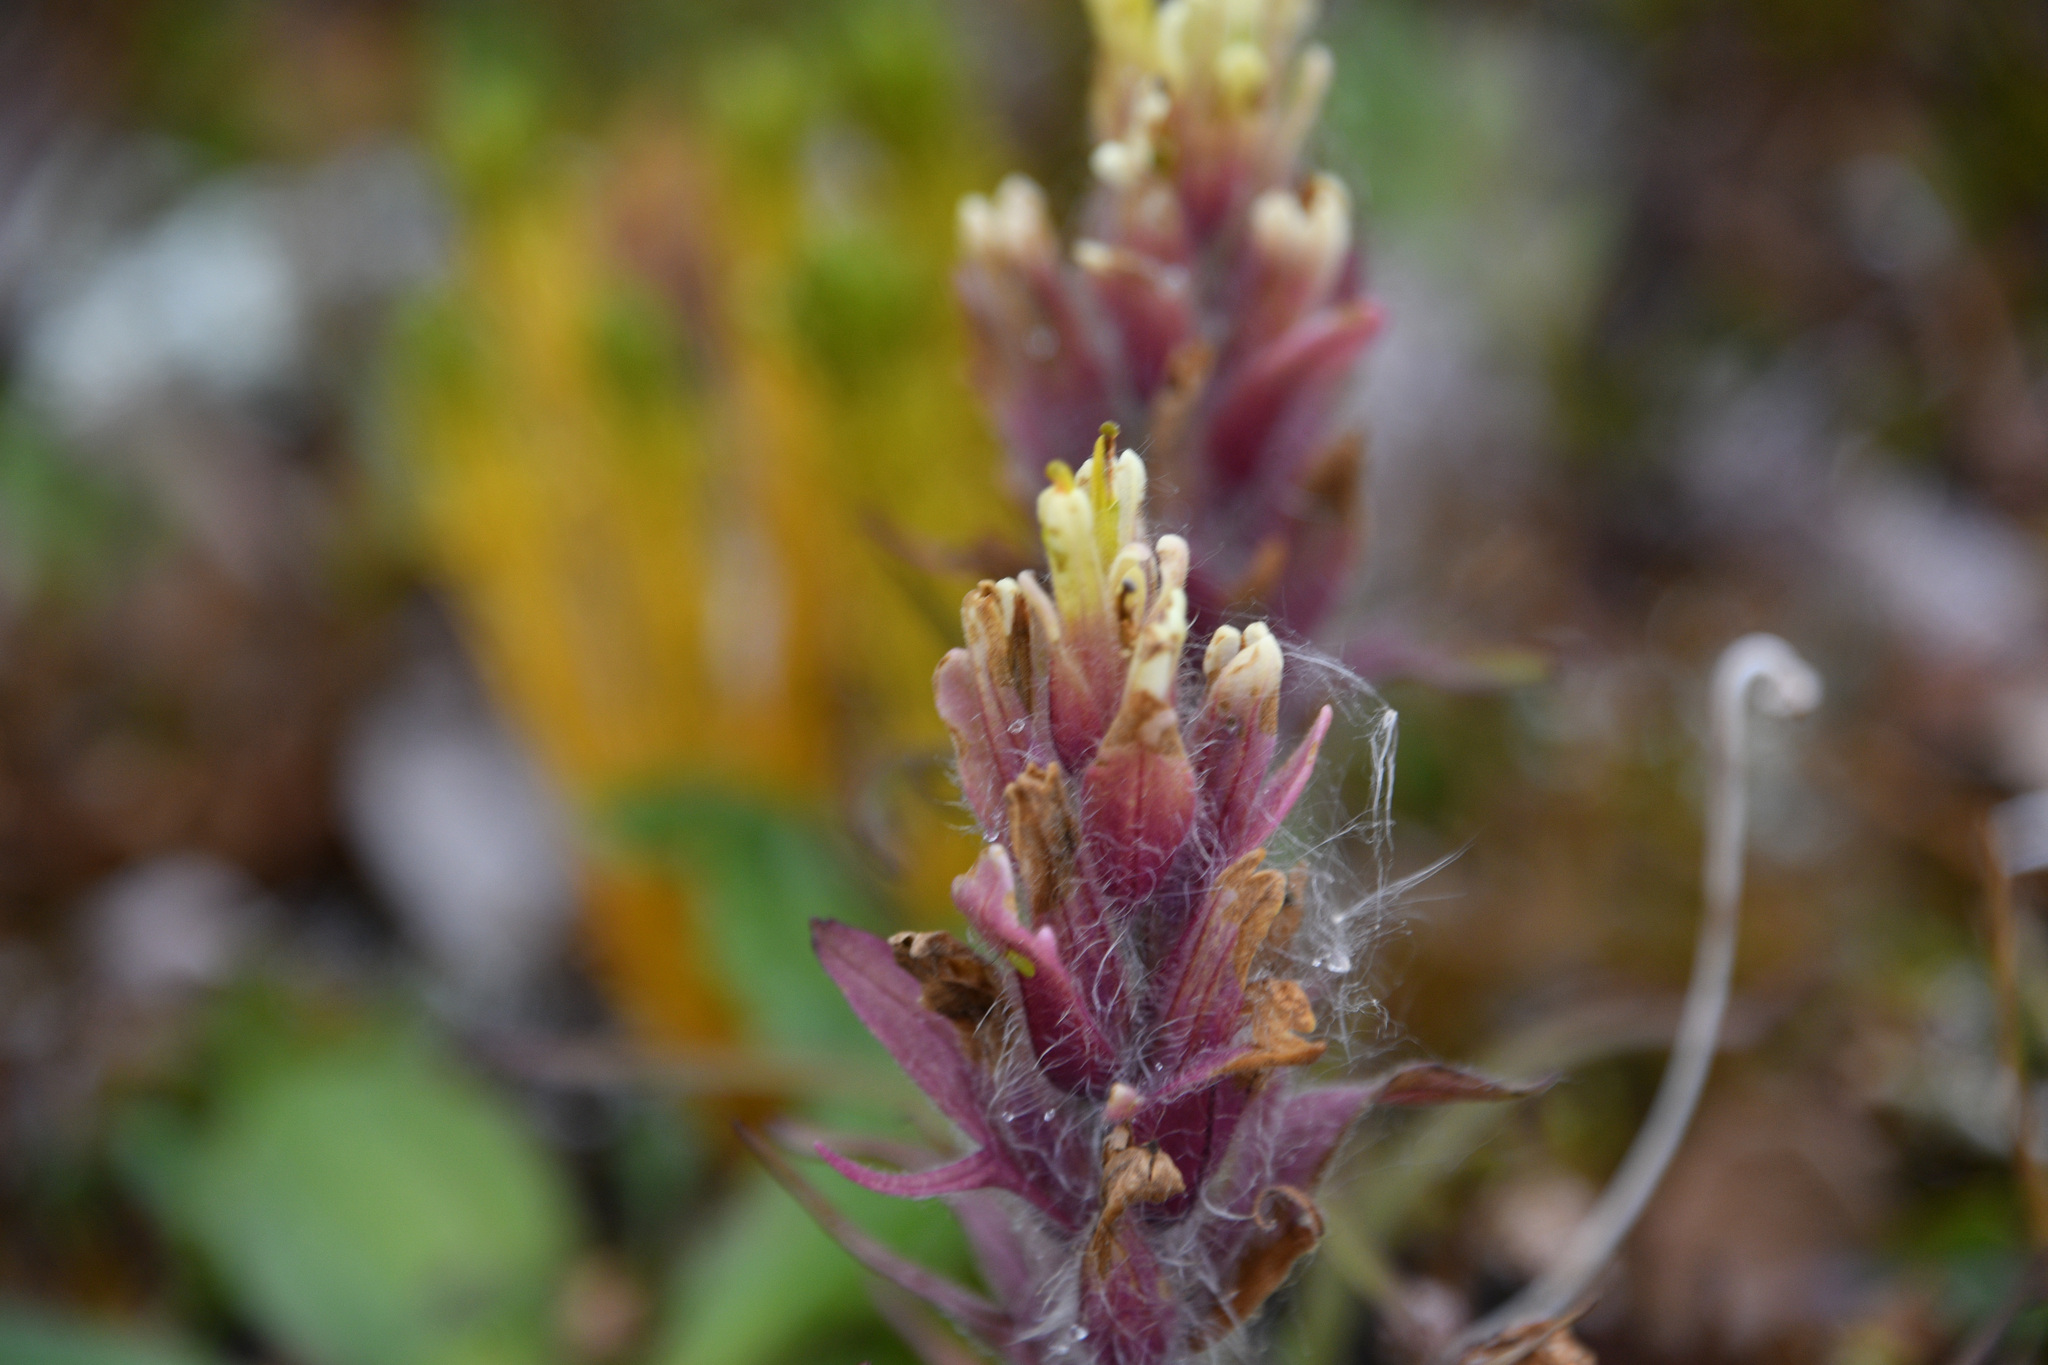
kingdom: Plantae
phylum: Tracheophyta
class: Magnoliopsida
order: Lamiales
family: Orobanchaceae
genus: Castilleja
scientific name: Castilleja hyperborea
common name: Northern paintbrush
